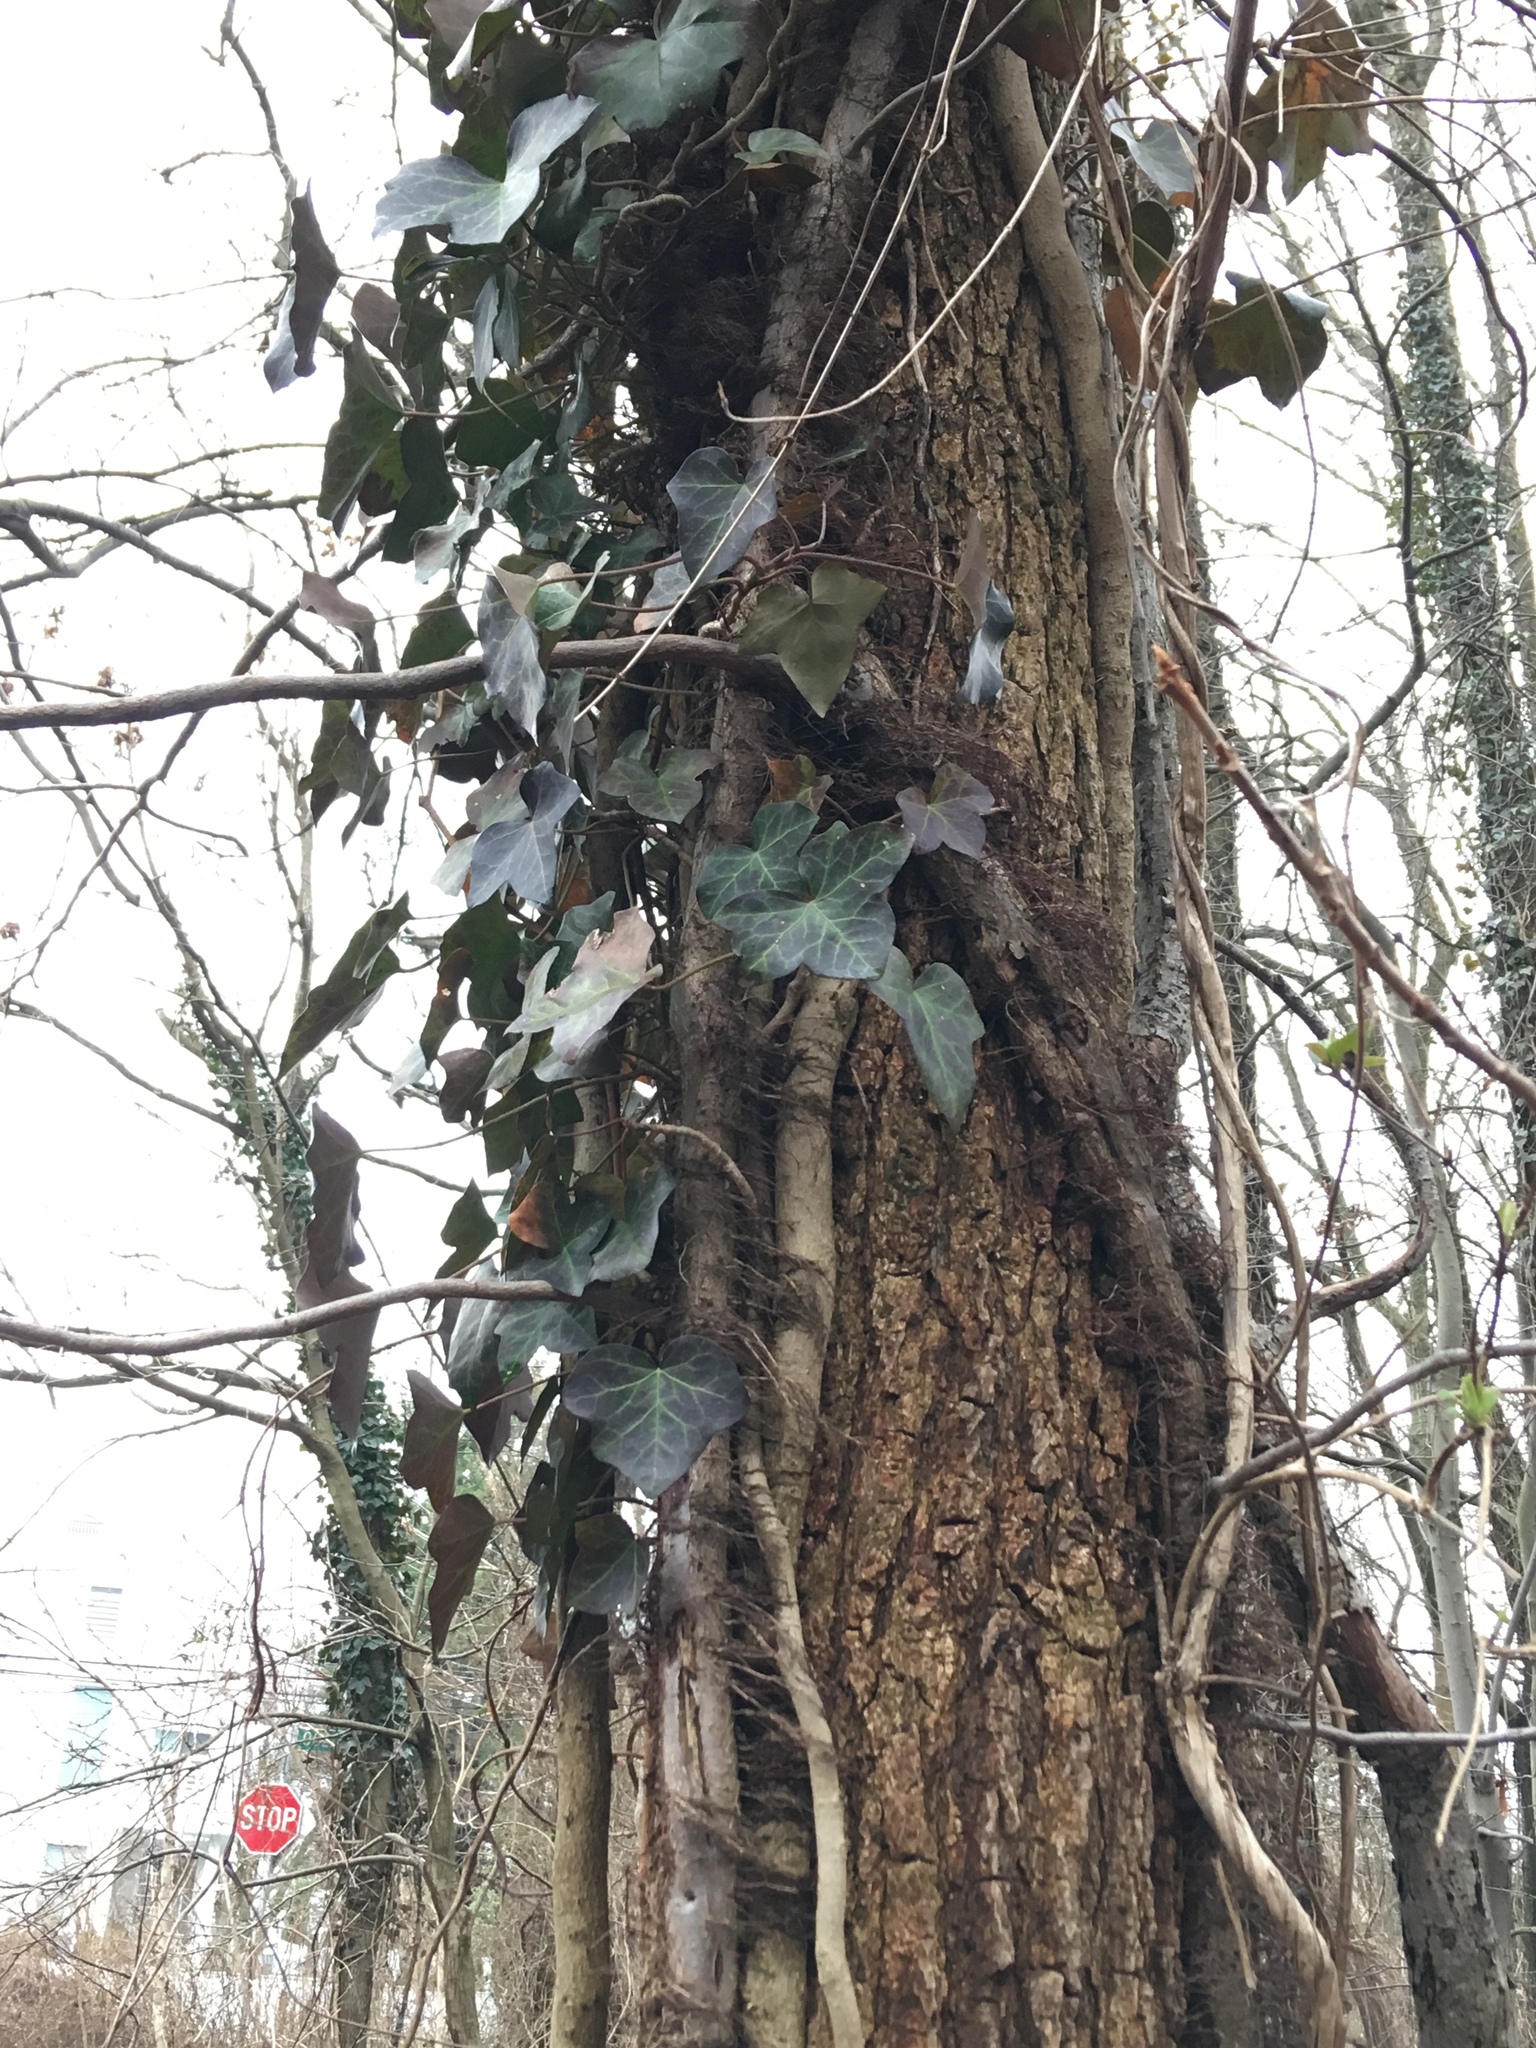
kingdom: Plantae
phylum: Tracheophyta
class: Magnoliopsida
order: Apiales
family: Araliaceae
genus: Hedera
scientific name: Hedera helix
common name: Ivy
